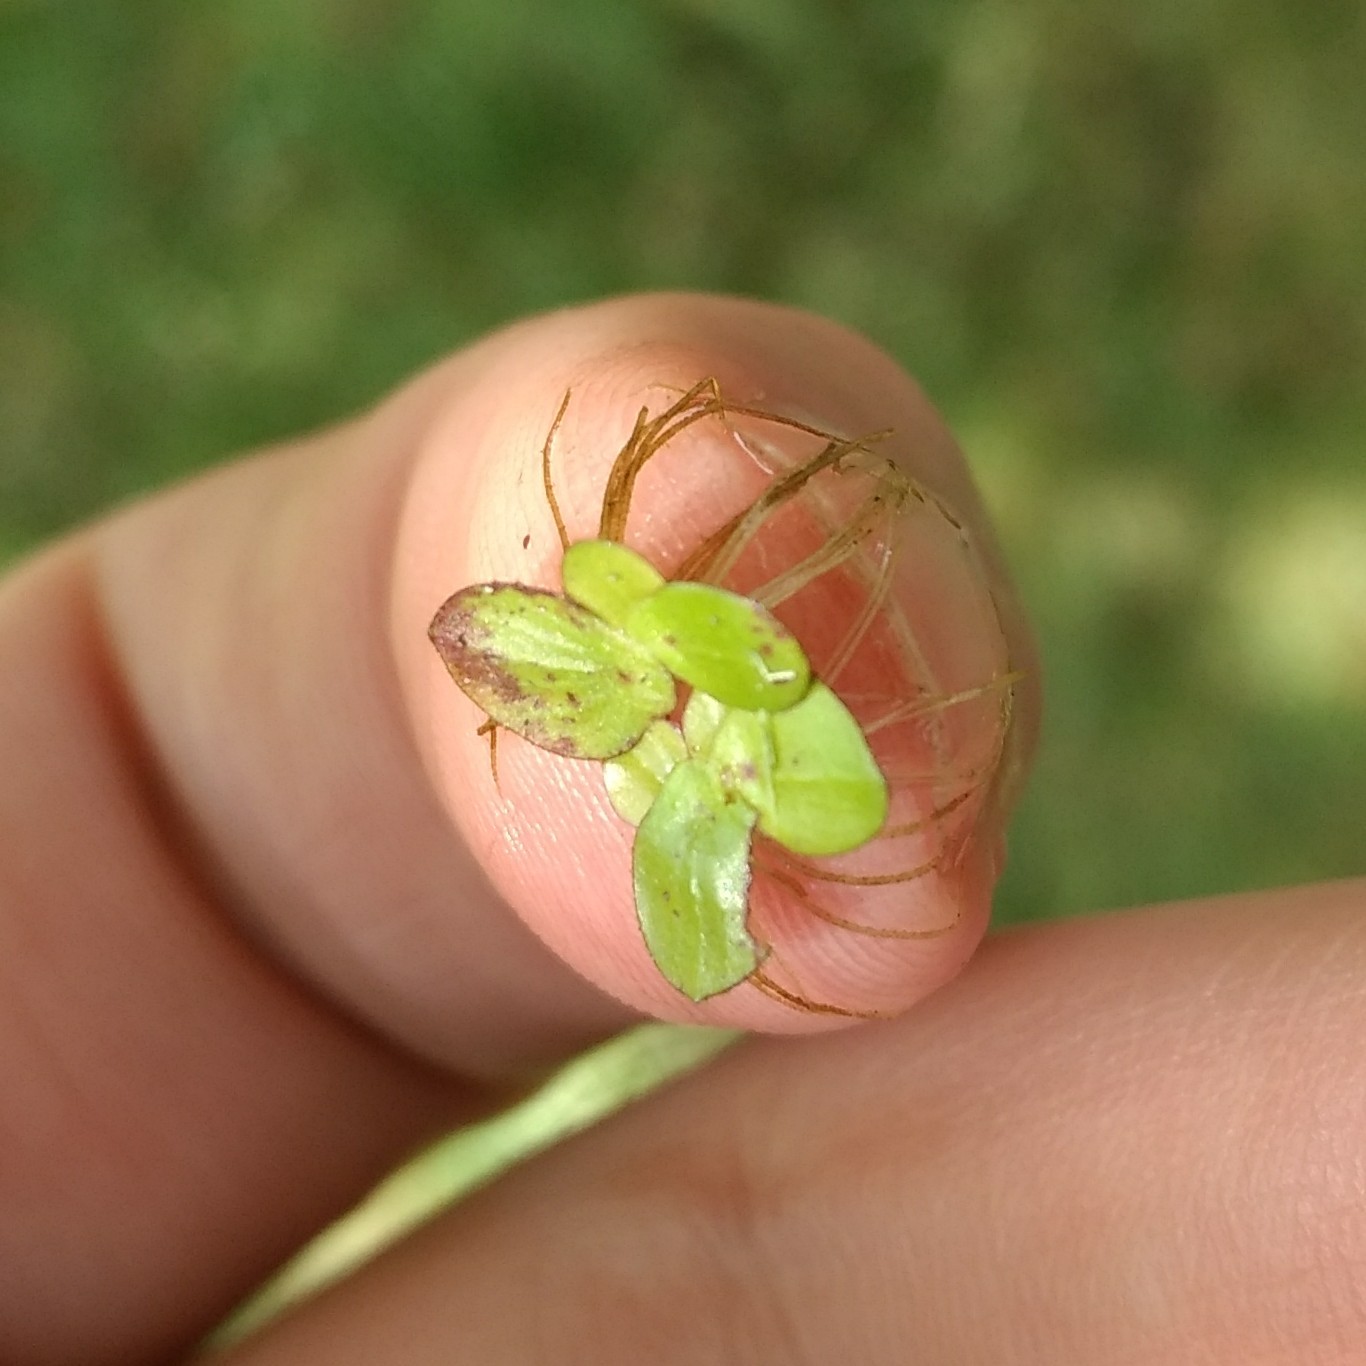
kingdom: Plantae
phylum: Tracheophyta
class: Liliopsida
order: Alismatales
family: Araceae
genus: Spirodela
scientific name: Spirodela polyrhiza
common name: Great duckweed
